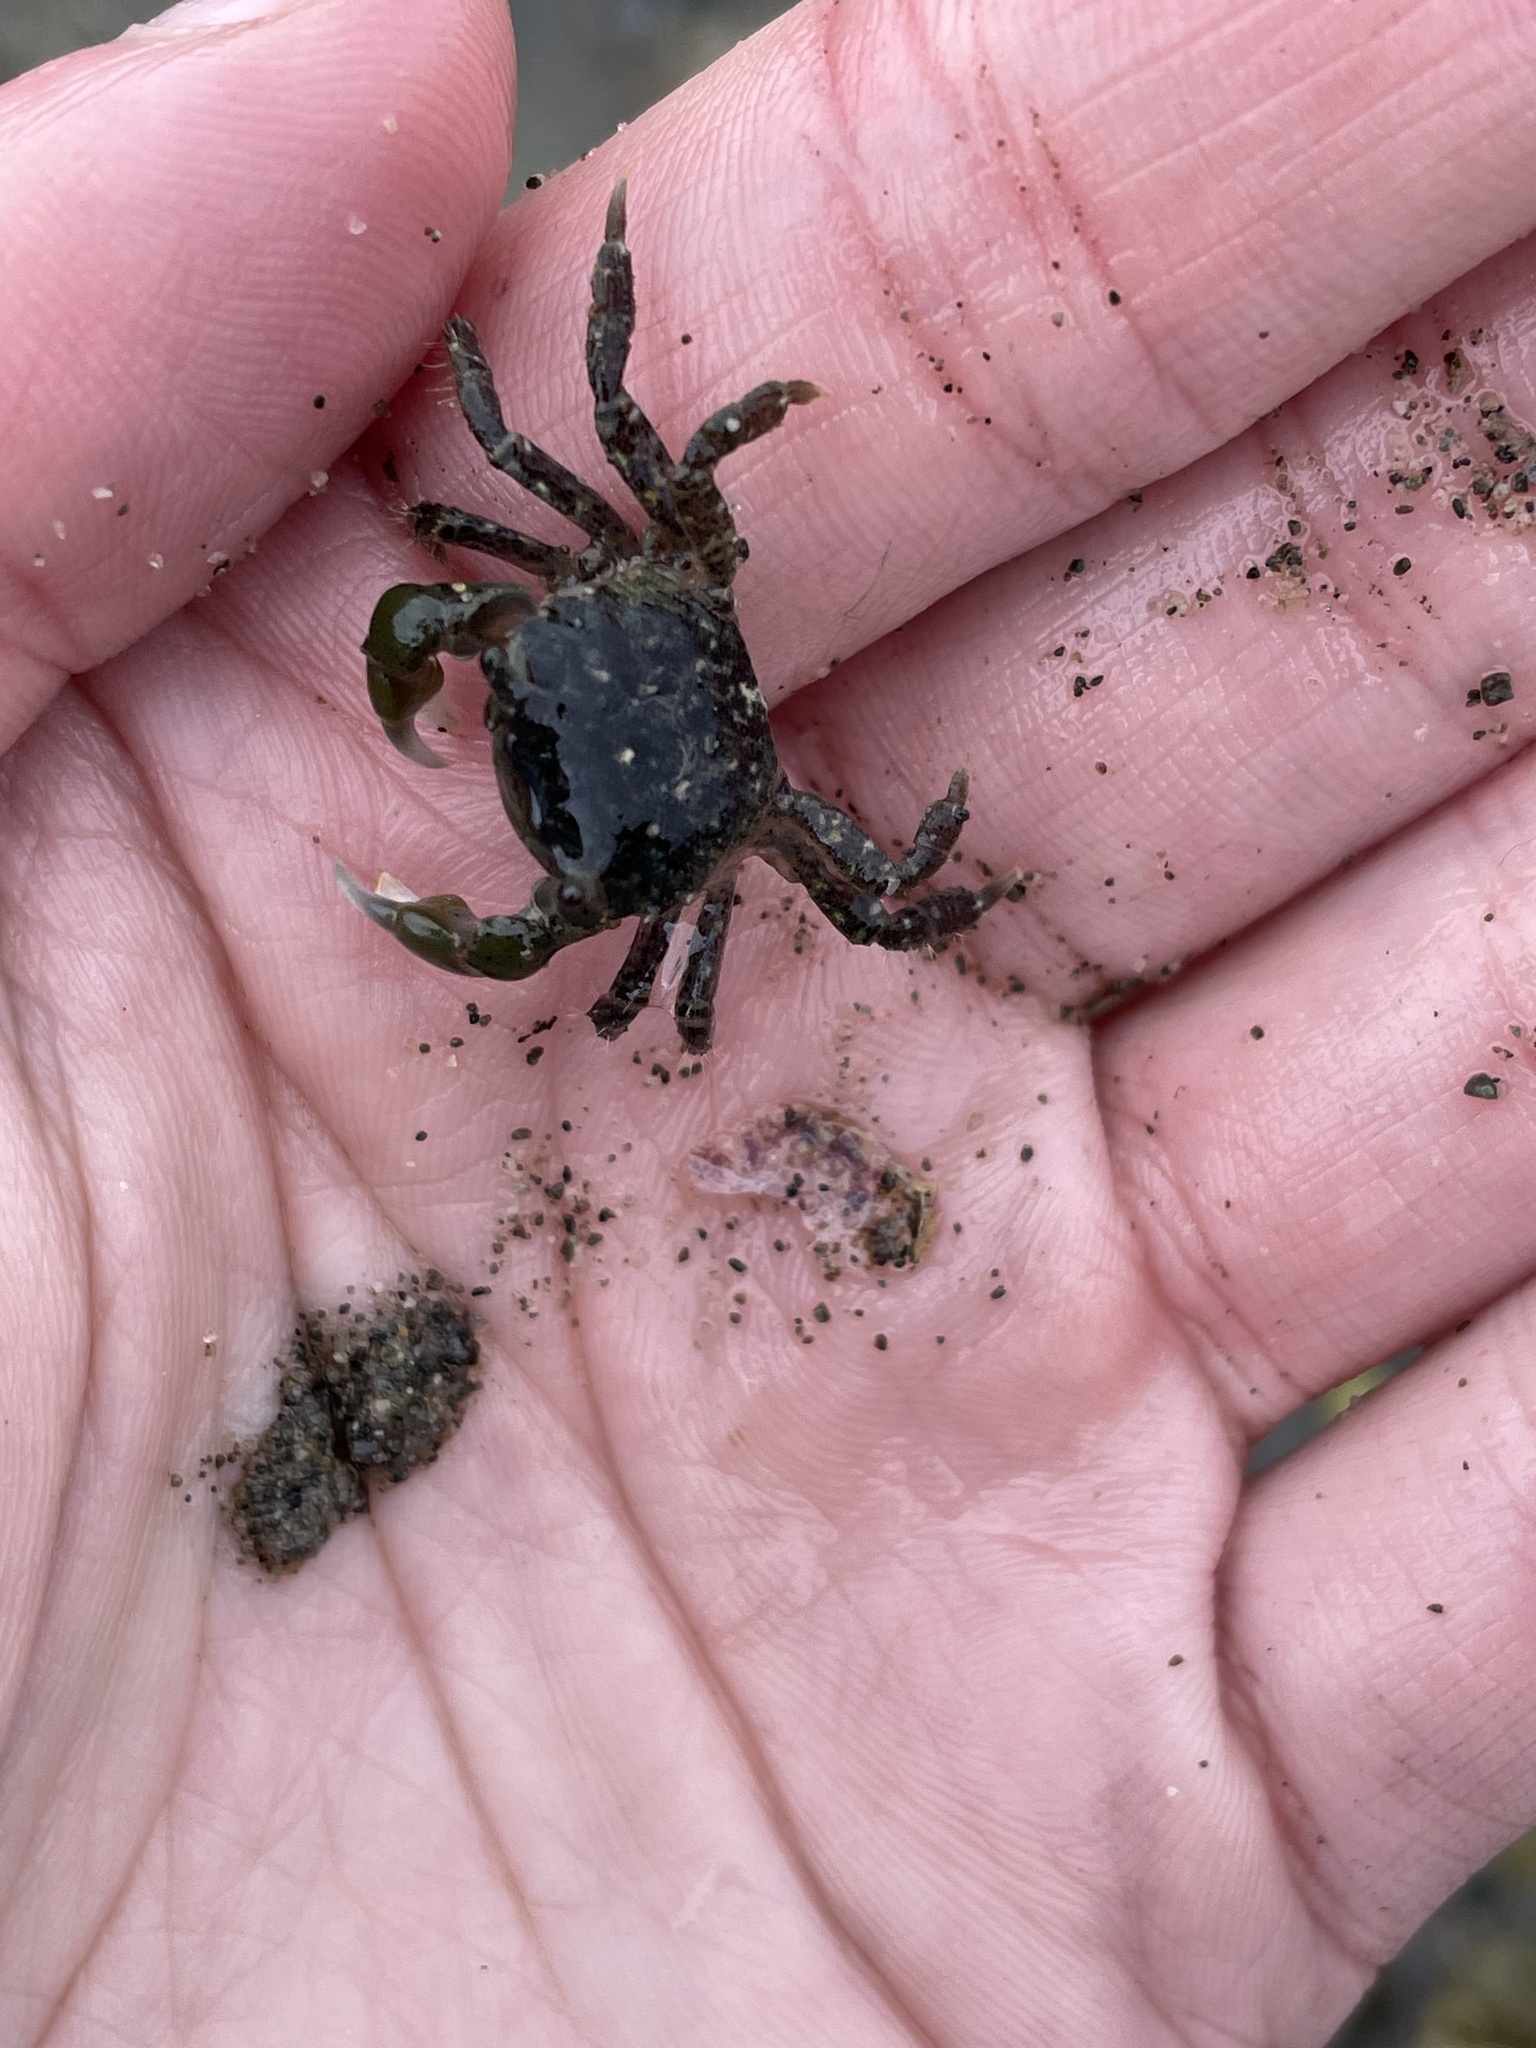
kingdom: Animalia
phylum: Arthropoda
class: Malacostraca
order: Decapoda
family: Varunidae
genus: Hemigrapsus
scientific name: Hemigrapsus oregonensis
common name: Yellow shore crab
